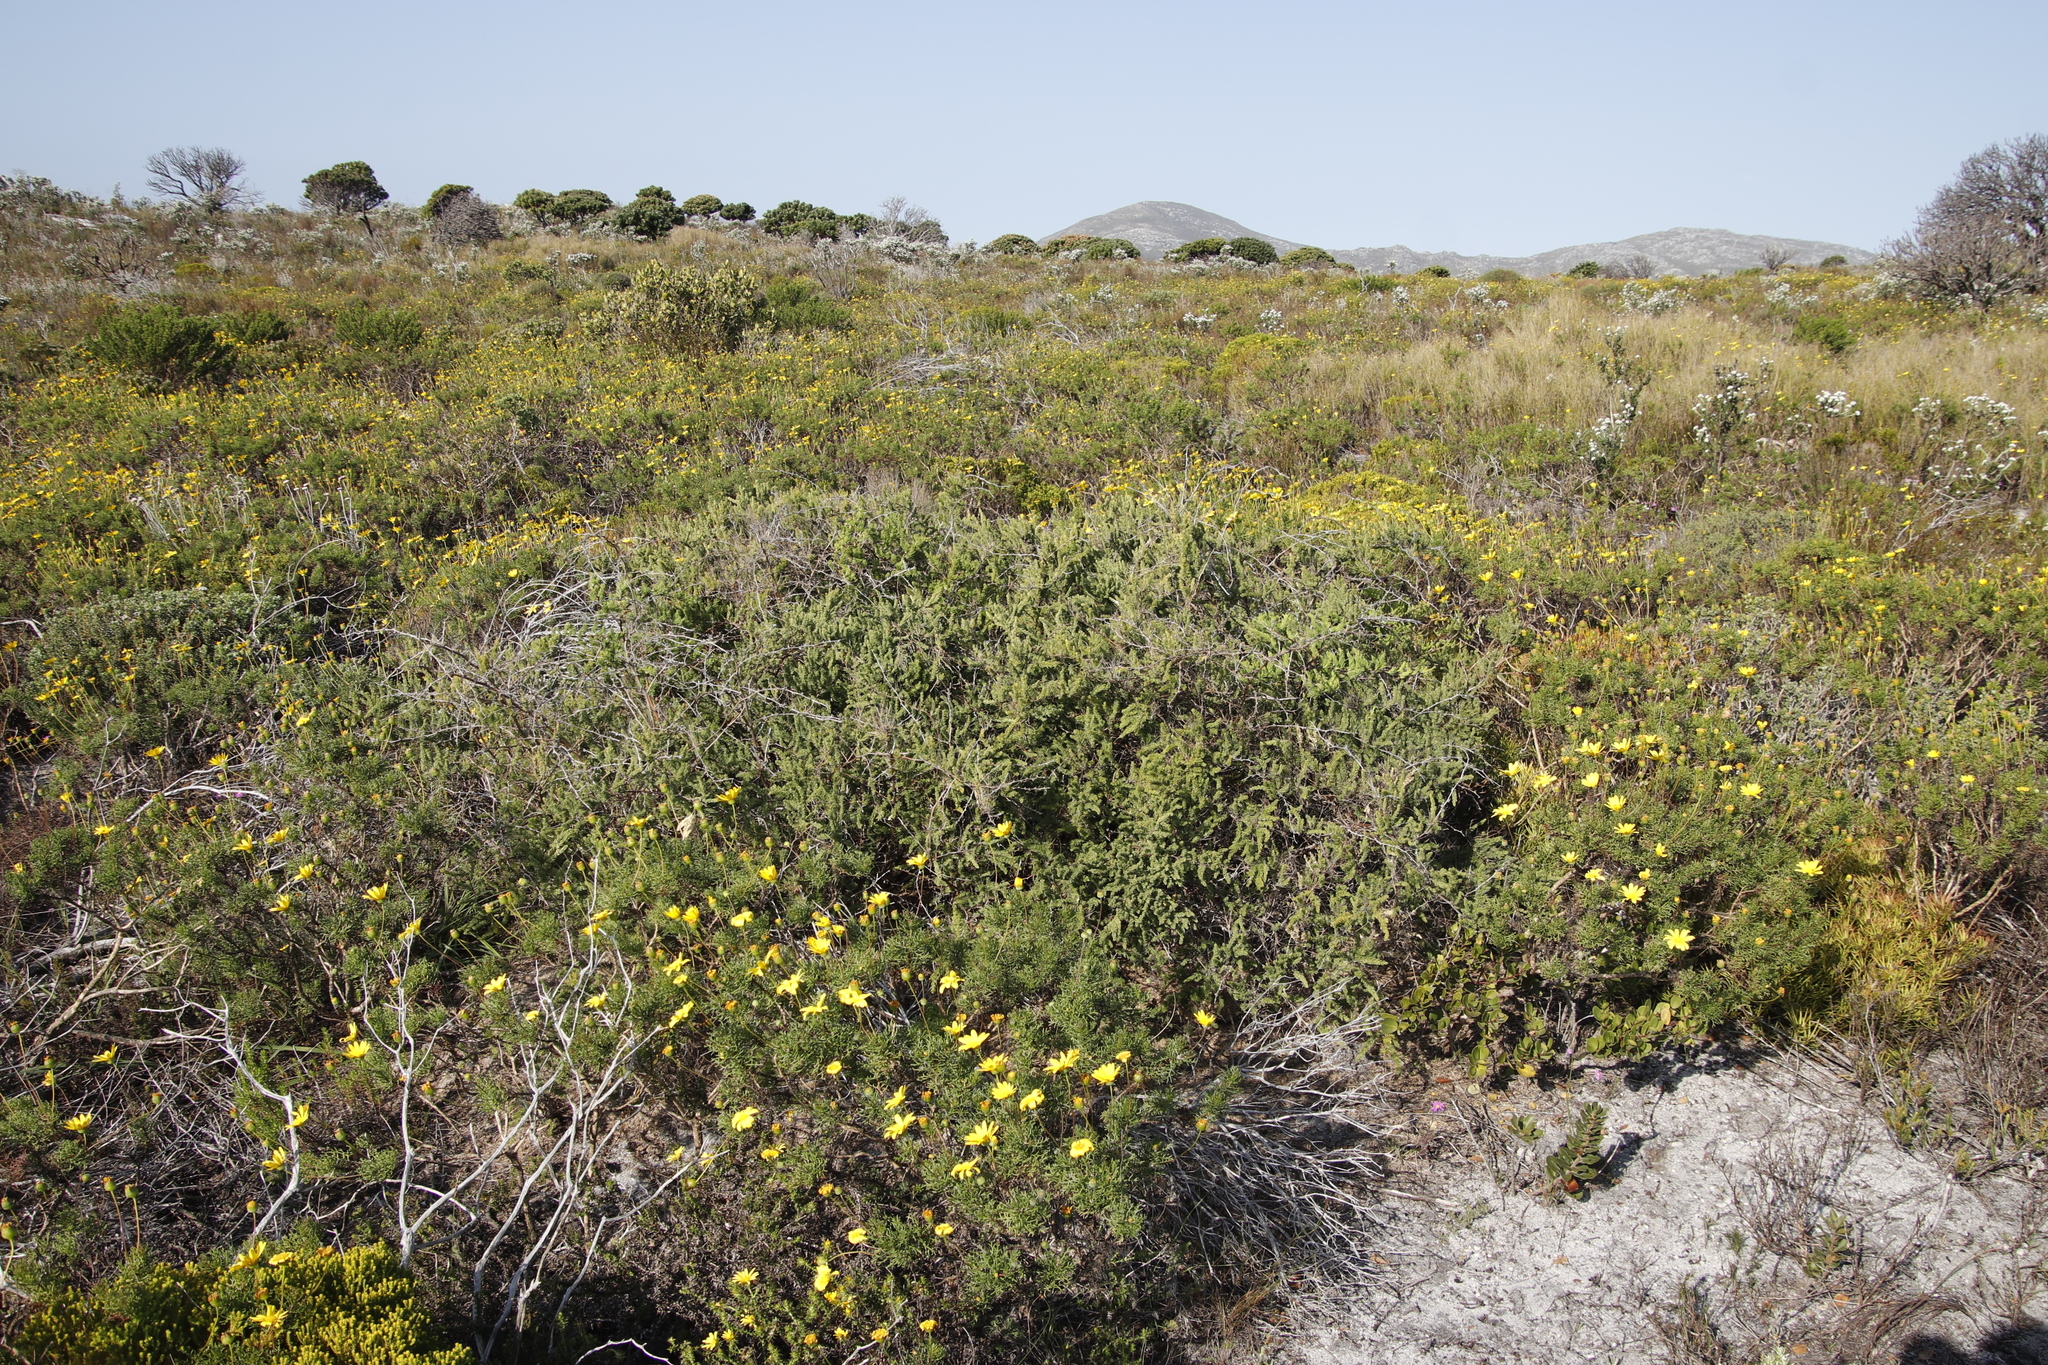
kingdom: Plantae
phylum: Tracheophyta
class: Liliopsida
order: Asparagales
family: Asparagaceae
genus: Asparagus
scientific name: Asparagus rubicundus
